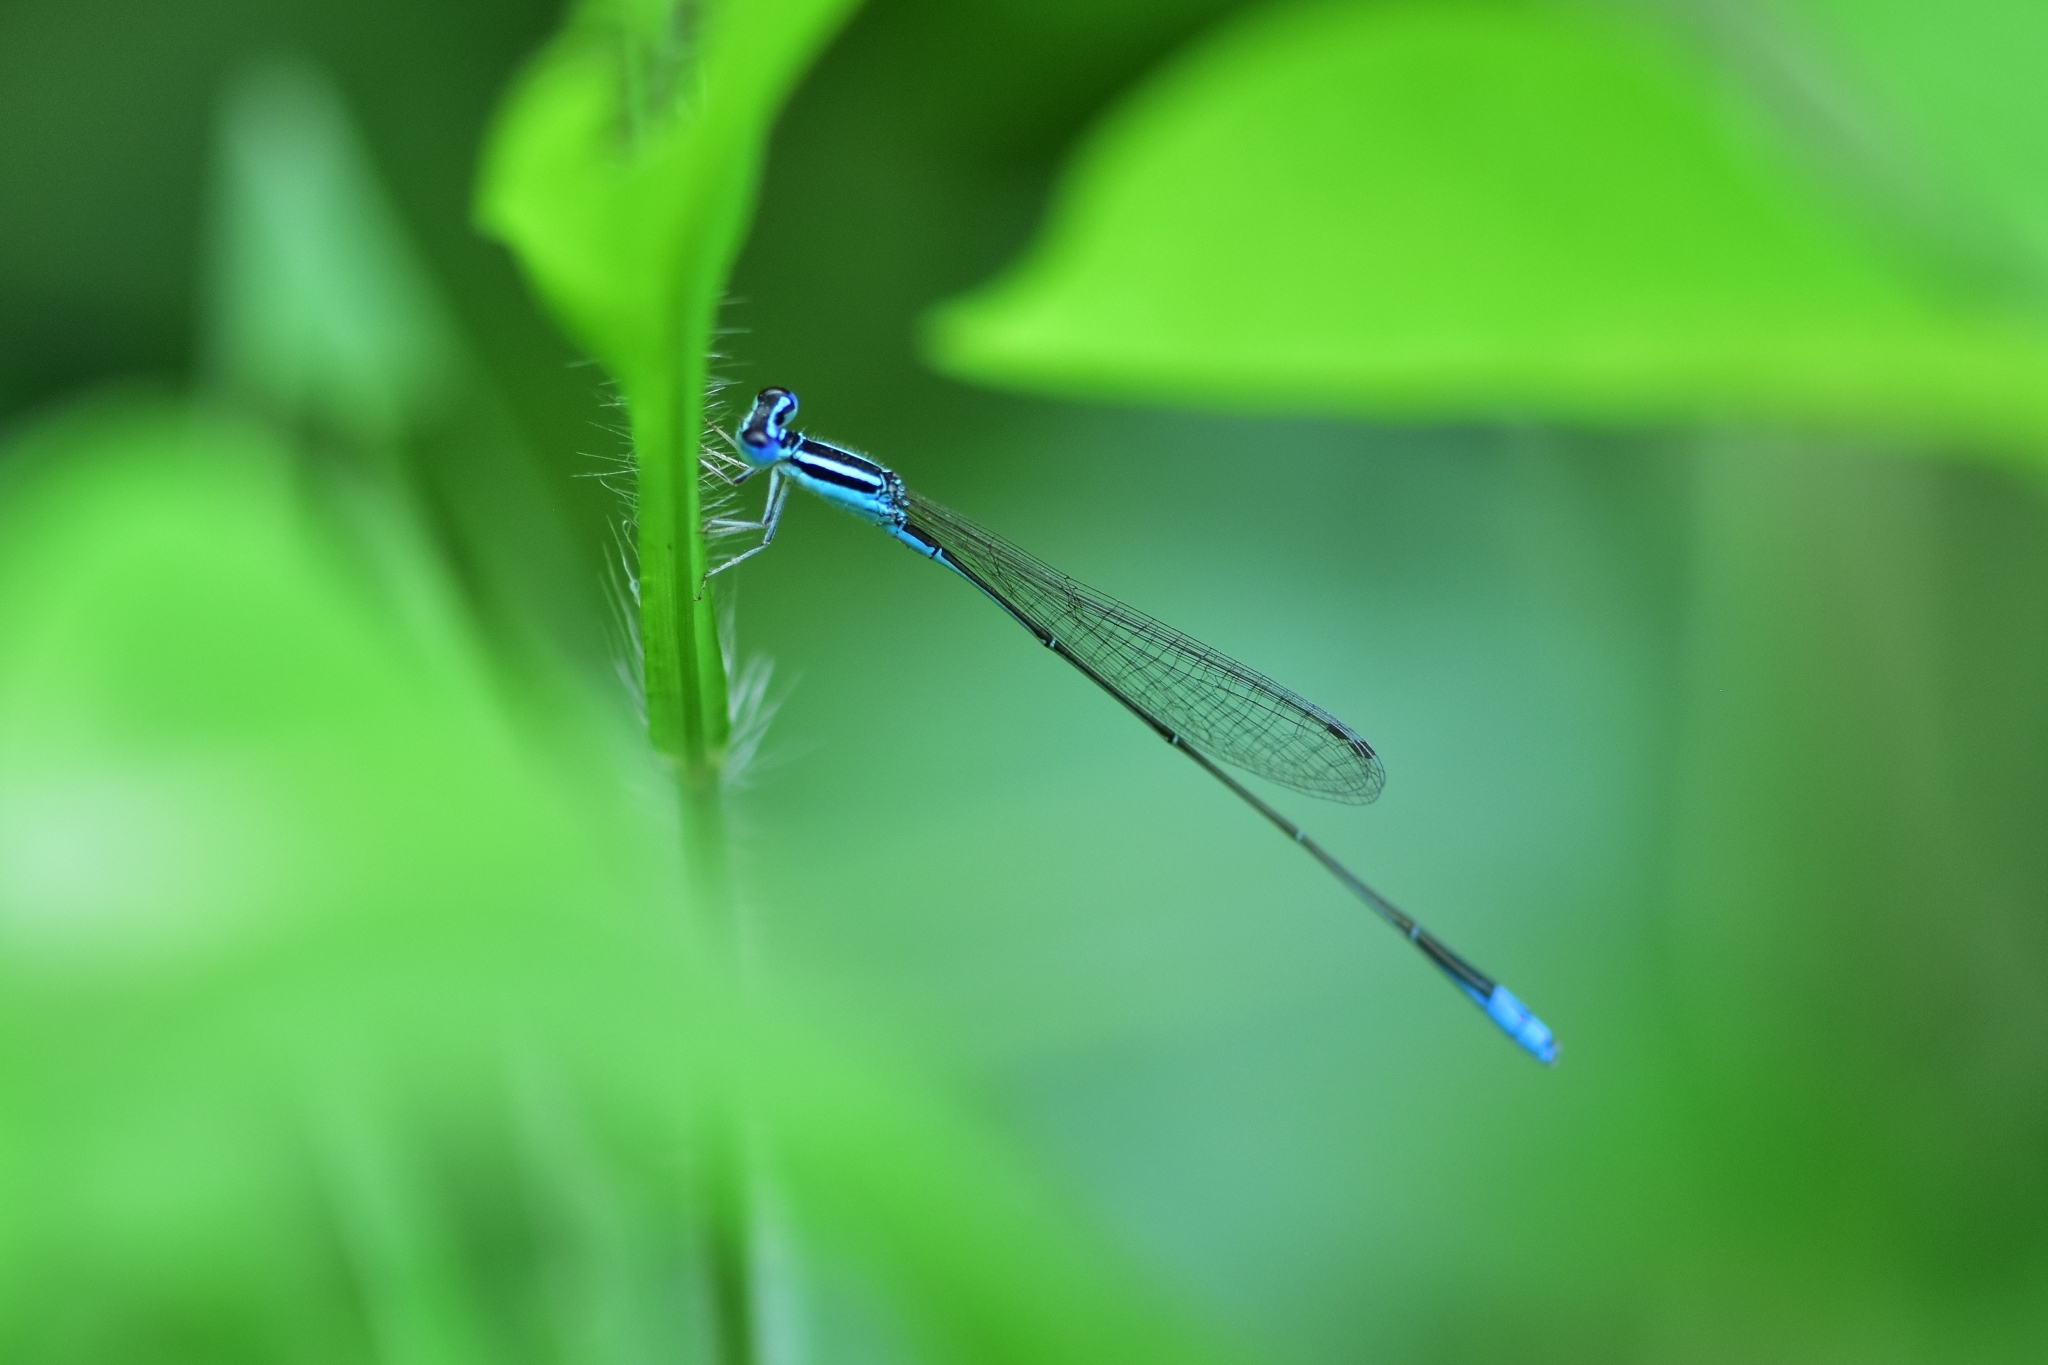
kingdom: Animalia
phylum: Arthropoda
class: Insecta
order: Odonata
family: Coenagrionidae
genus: Aciagrion
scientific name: Aciagrion occidentale
